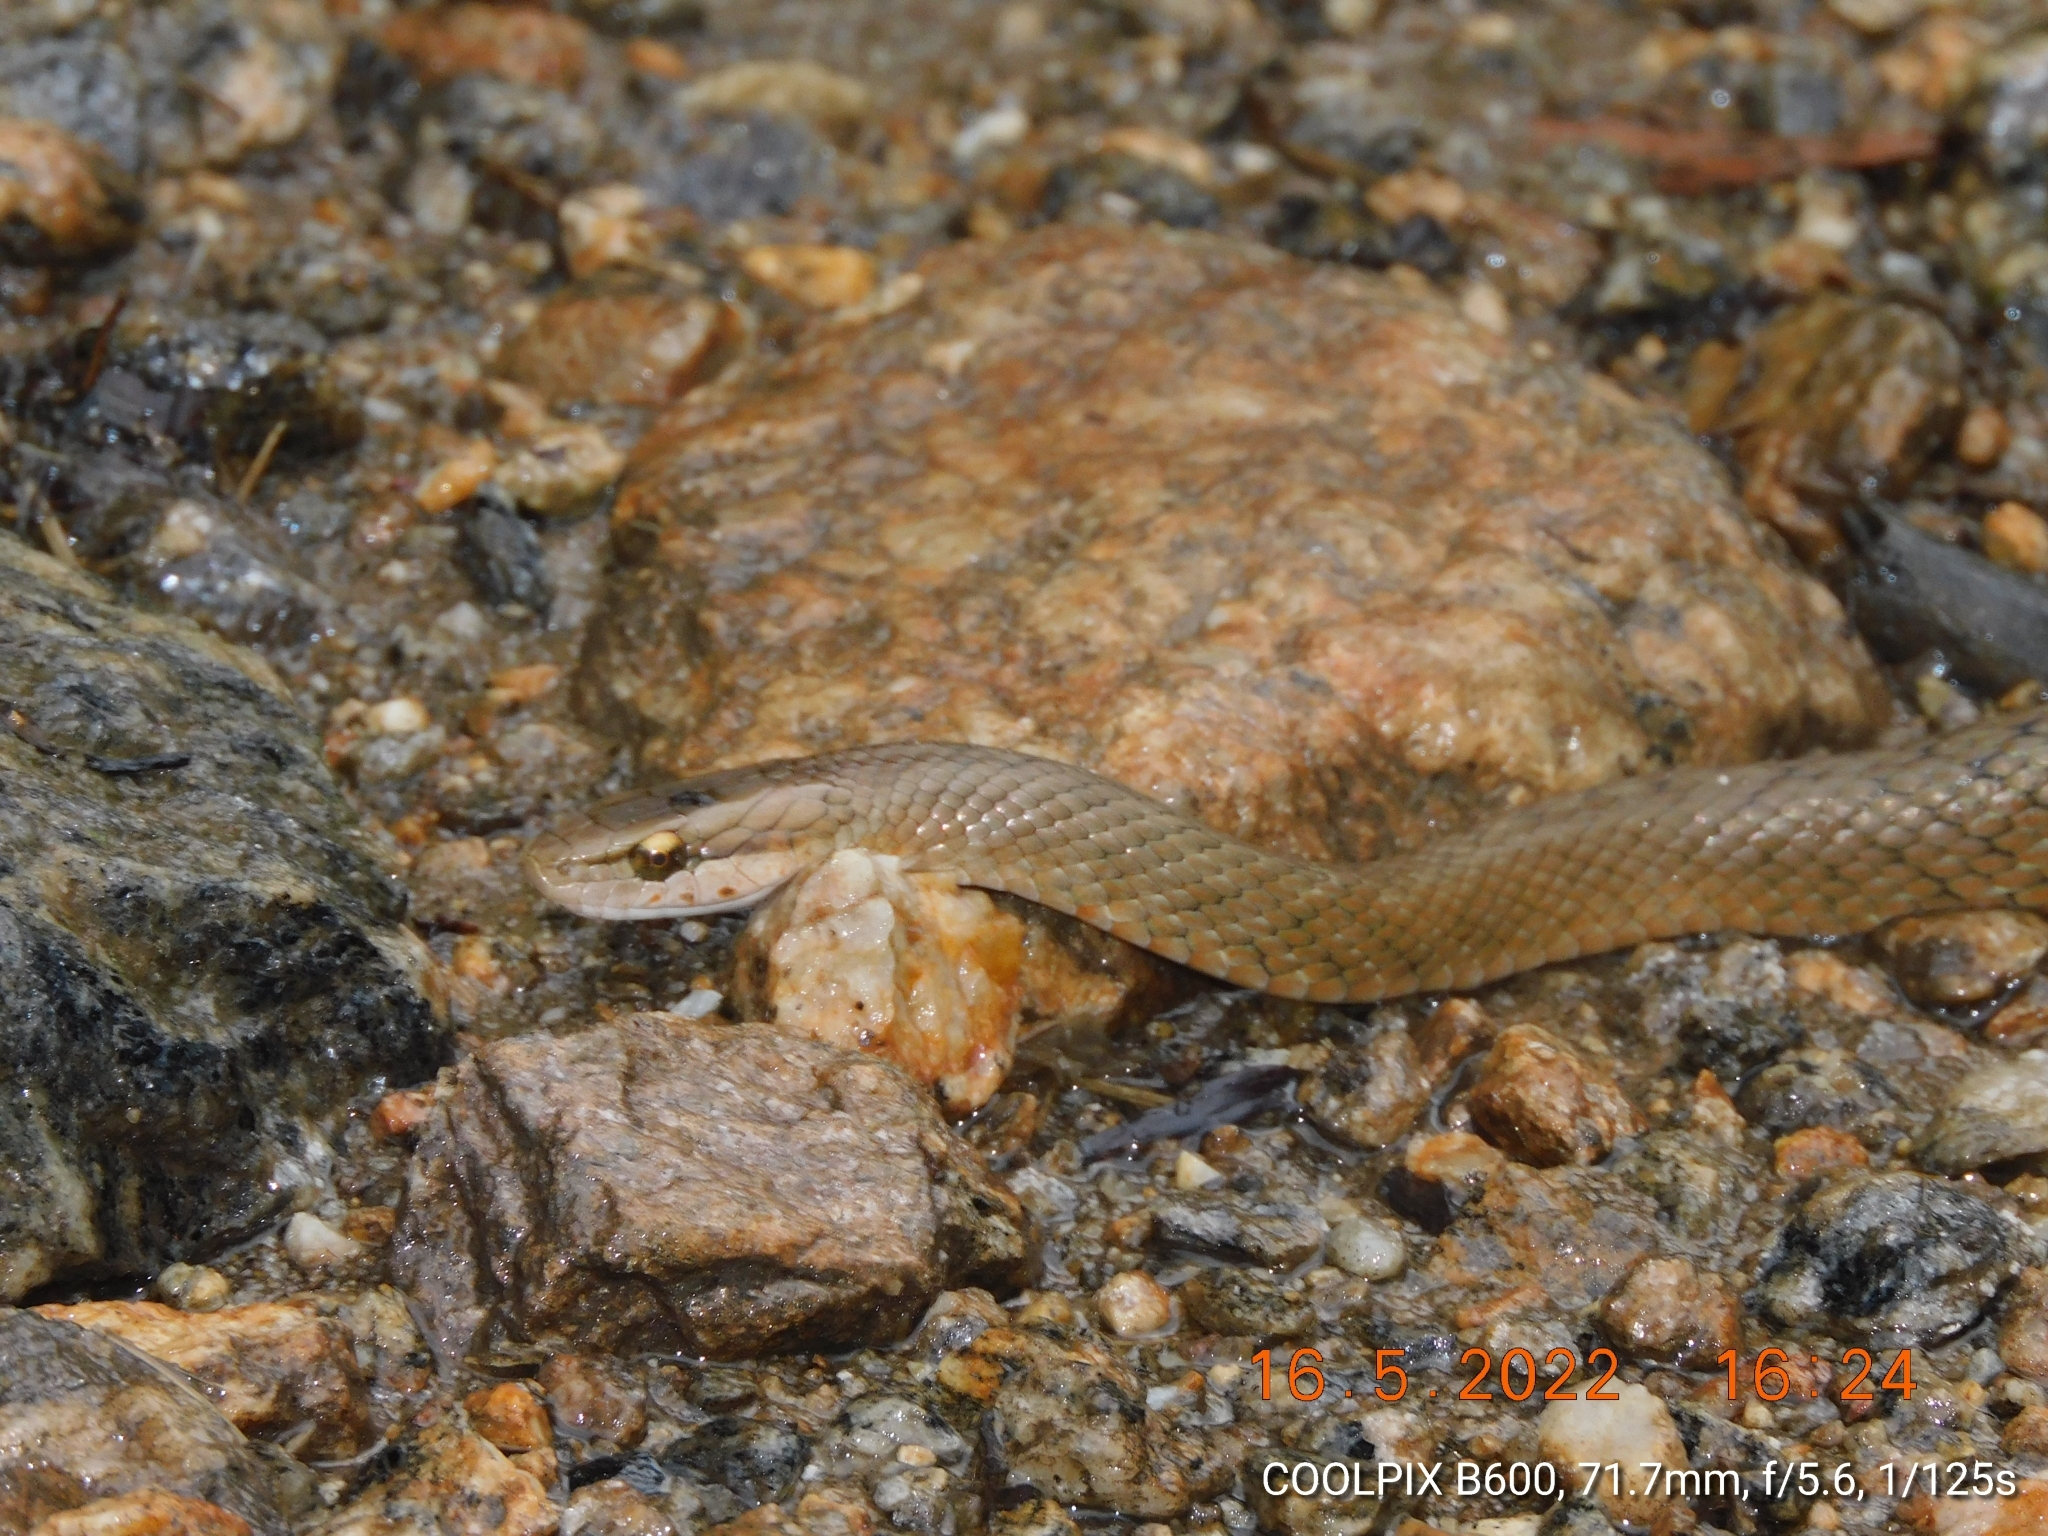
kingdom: Animalia
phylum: Chordata
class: Squamata
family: Colubridae
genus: Herpetoreas
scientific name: Herpetoreas platyceps
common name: Himalayan keelback
